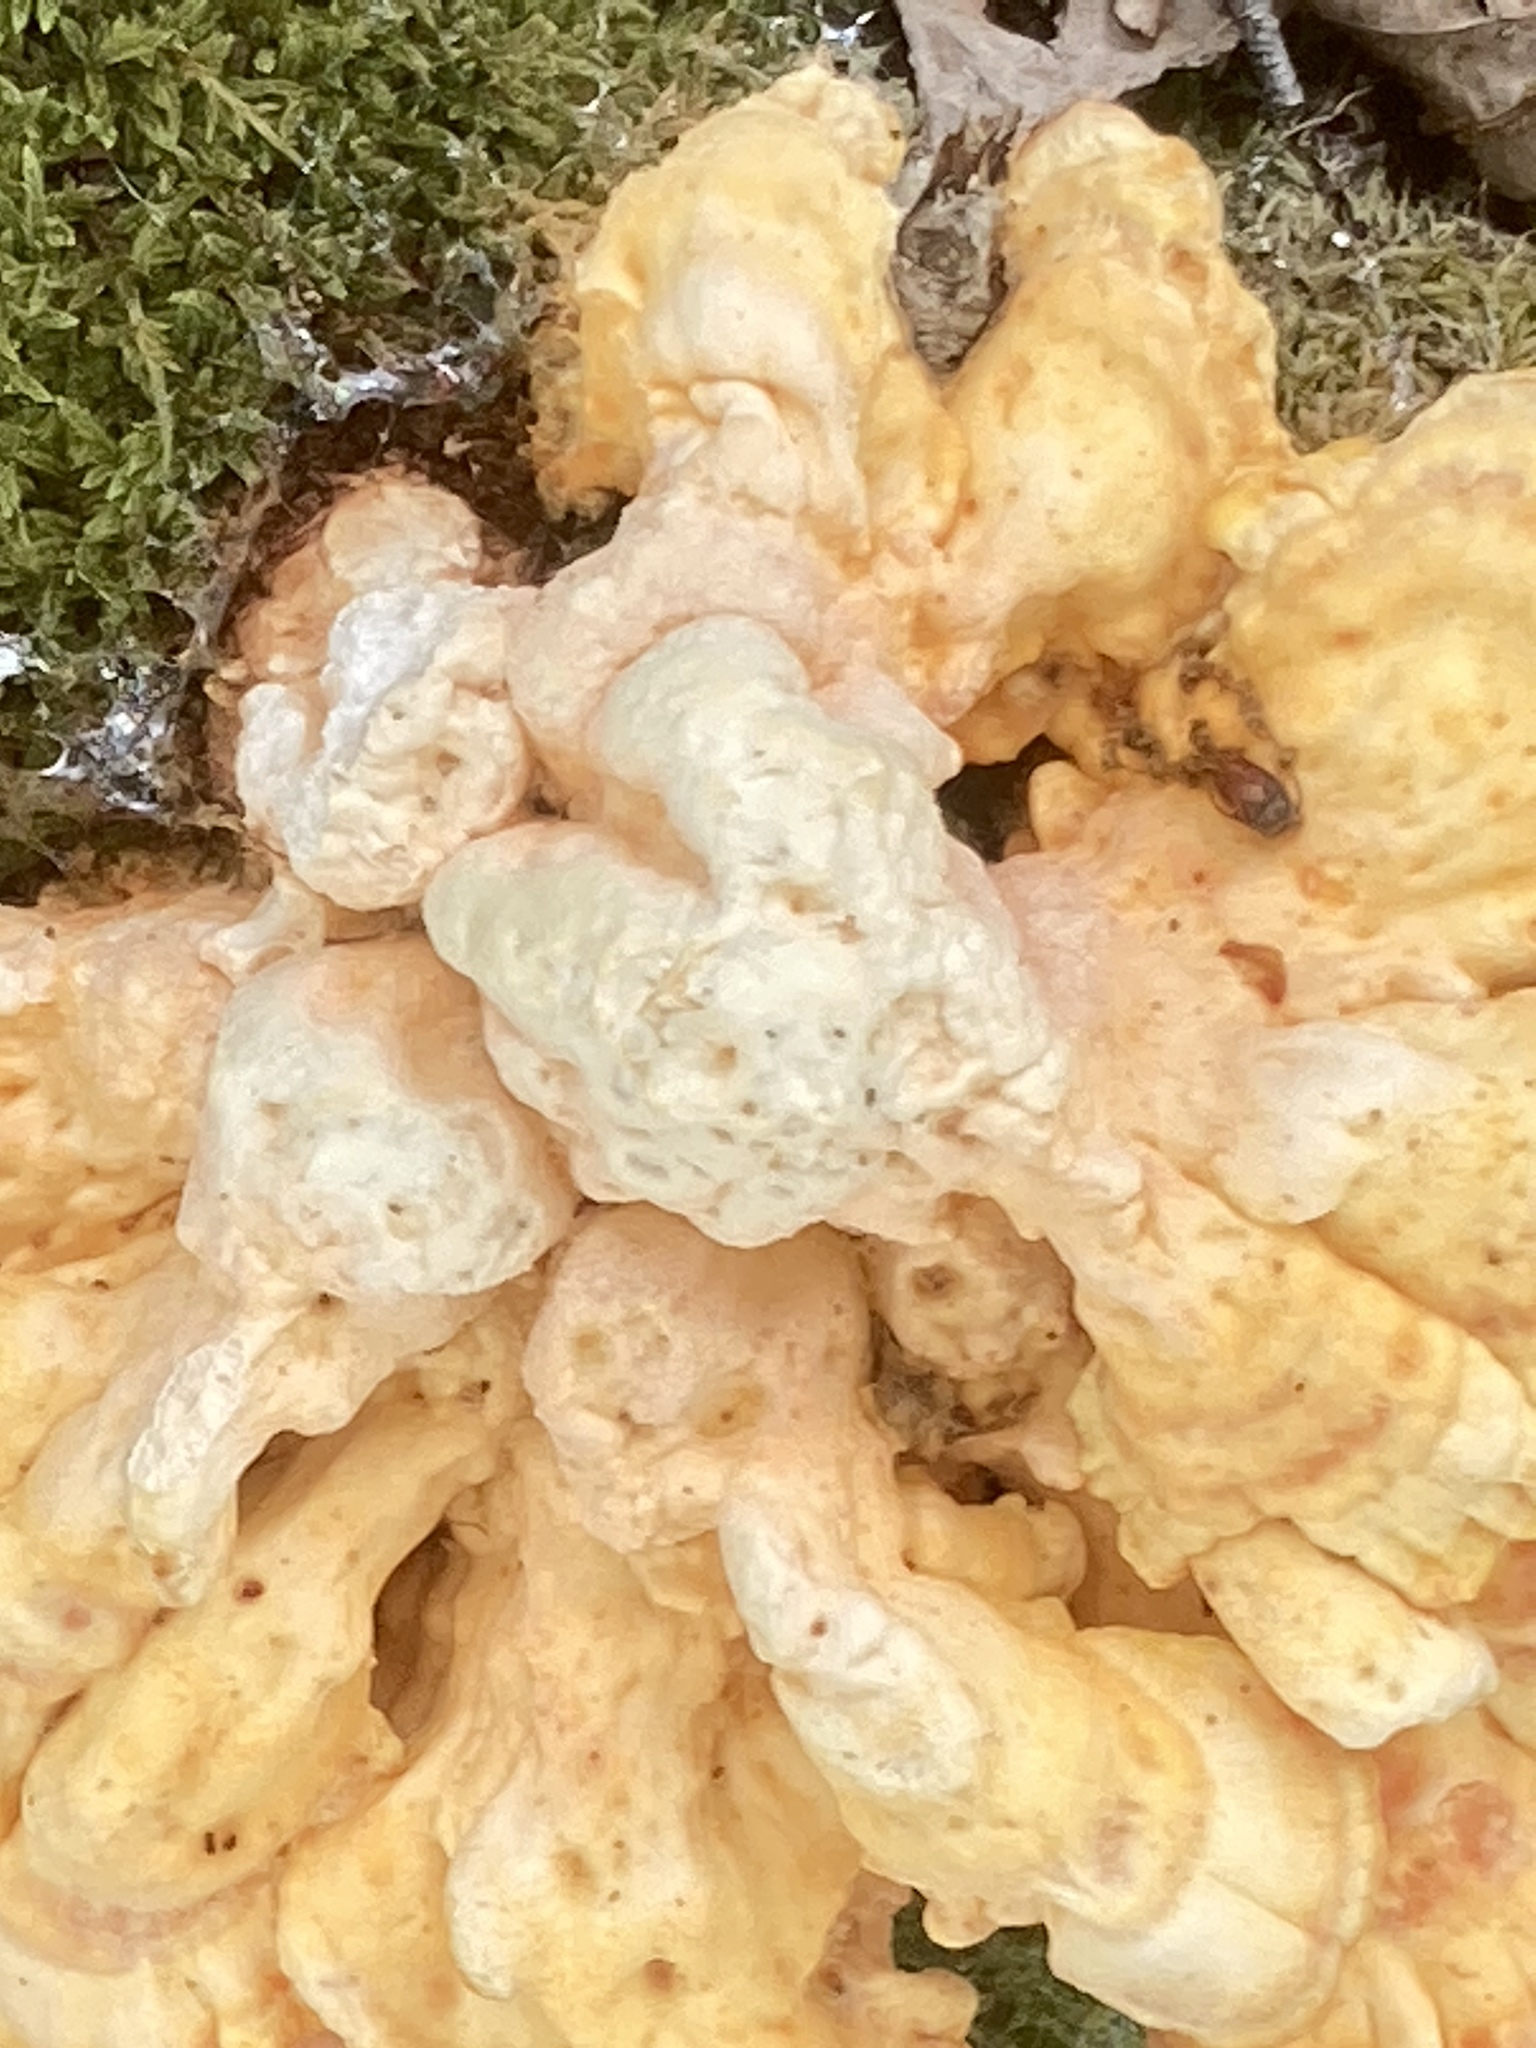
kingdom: Fungi
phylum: Basidiomycota
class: Agaricomycetes
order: Polyporales
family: Laetiporaceae
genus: Laetiporus
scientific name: Laetiporus sulphureus
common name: Chicken of the woods
